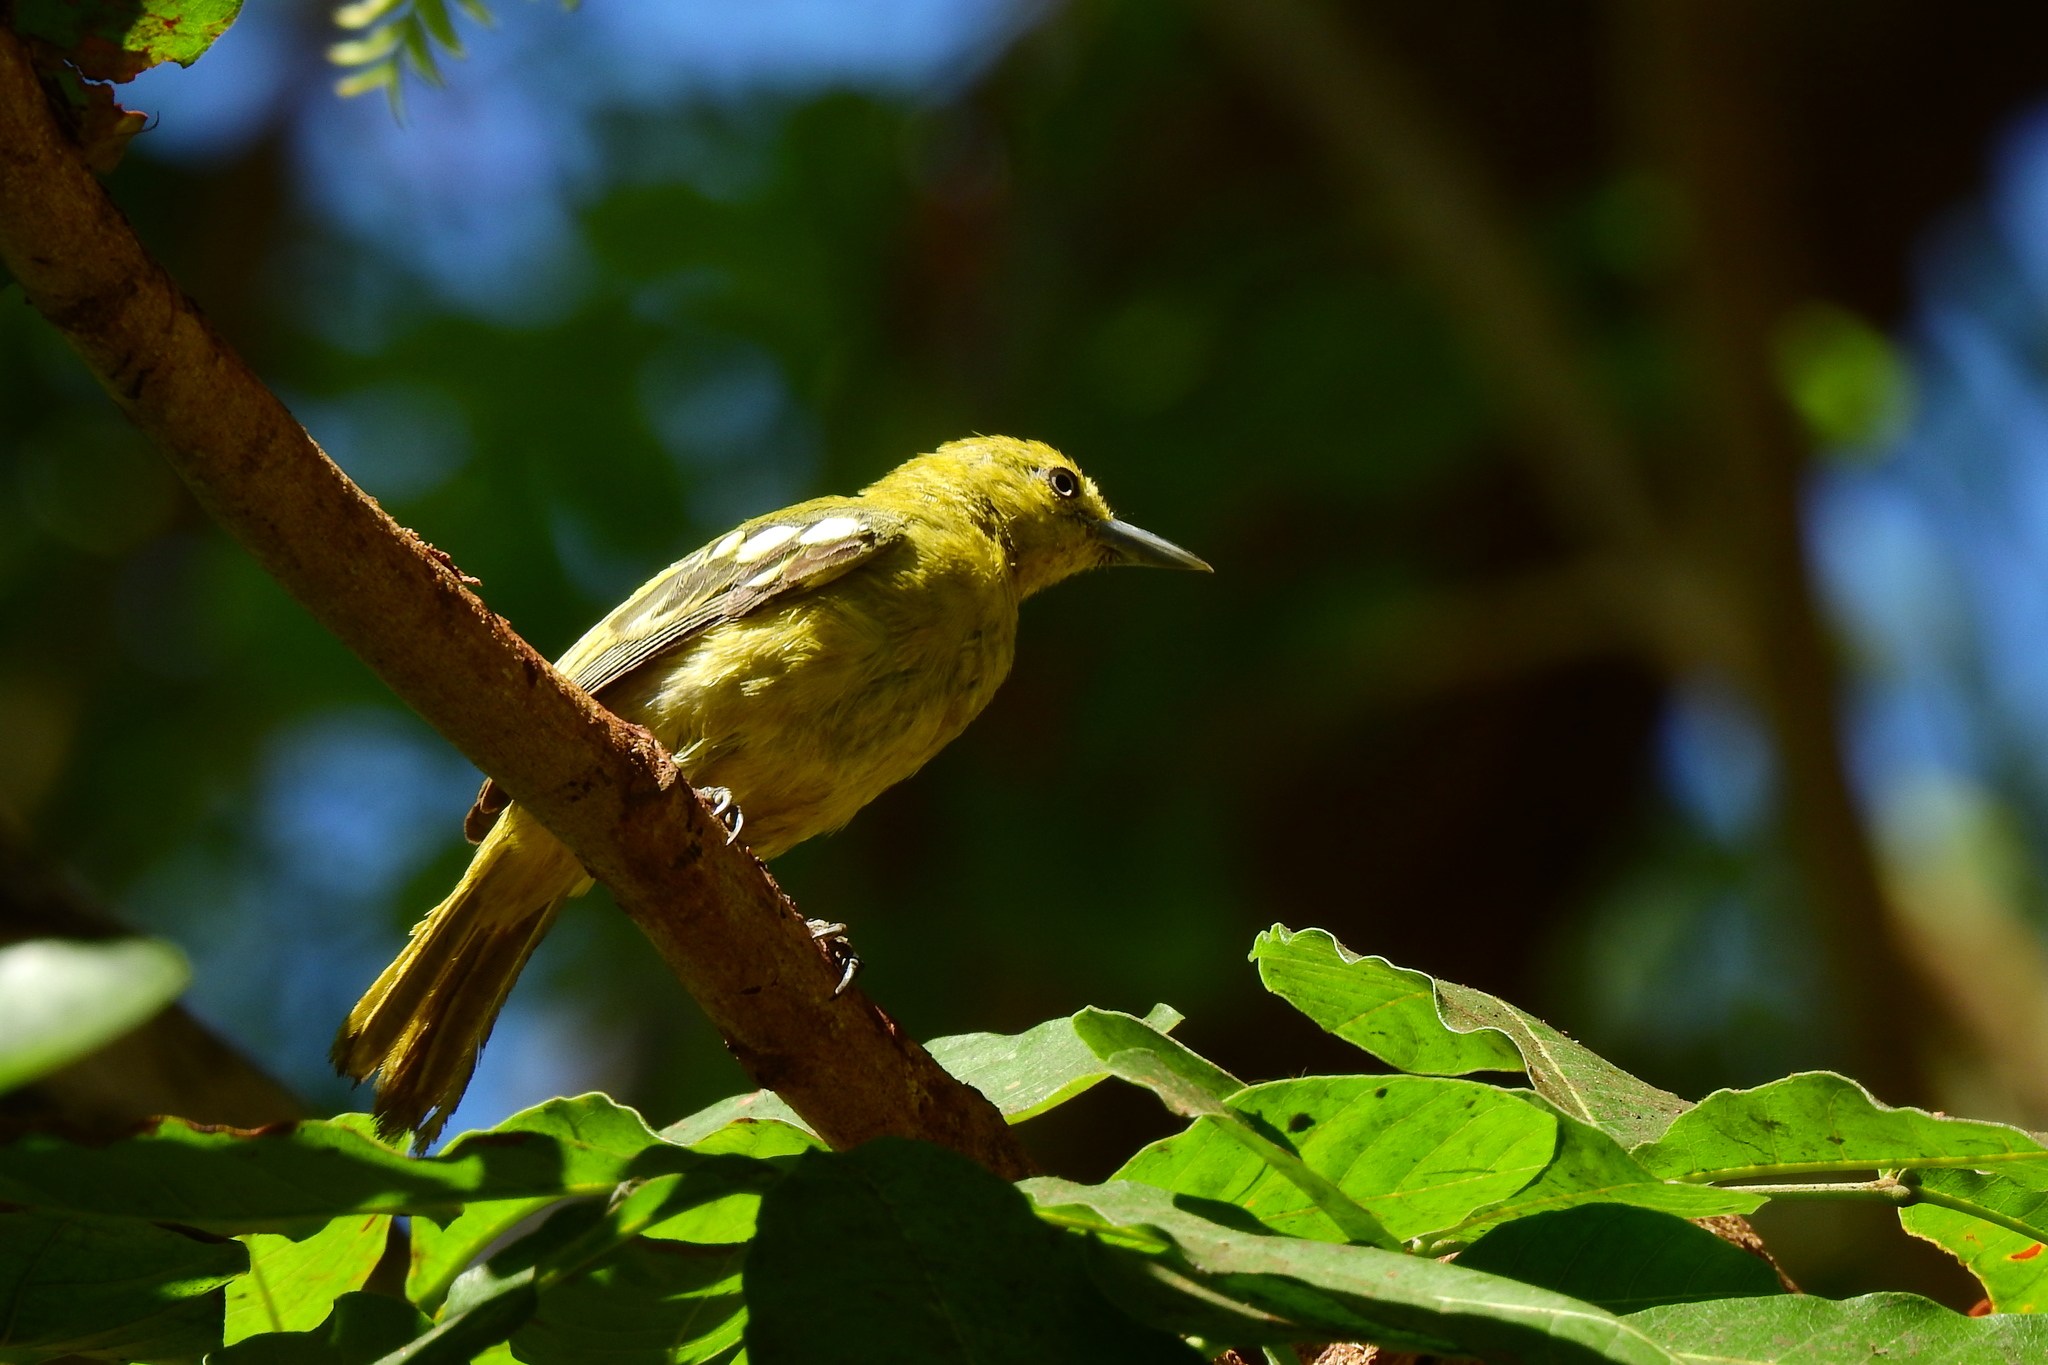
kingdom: Animalia
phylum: Chordata
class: Aves
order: Passeriformes
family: Aegithinidae
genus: Aegithina
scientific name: Aegithina tiphia
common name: Common iora
